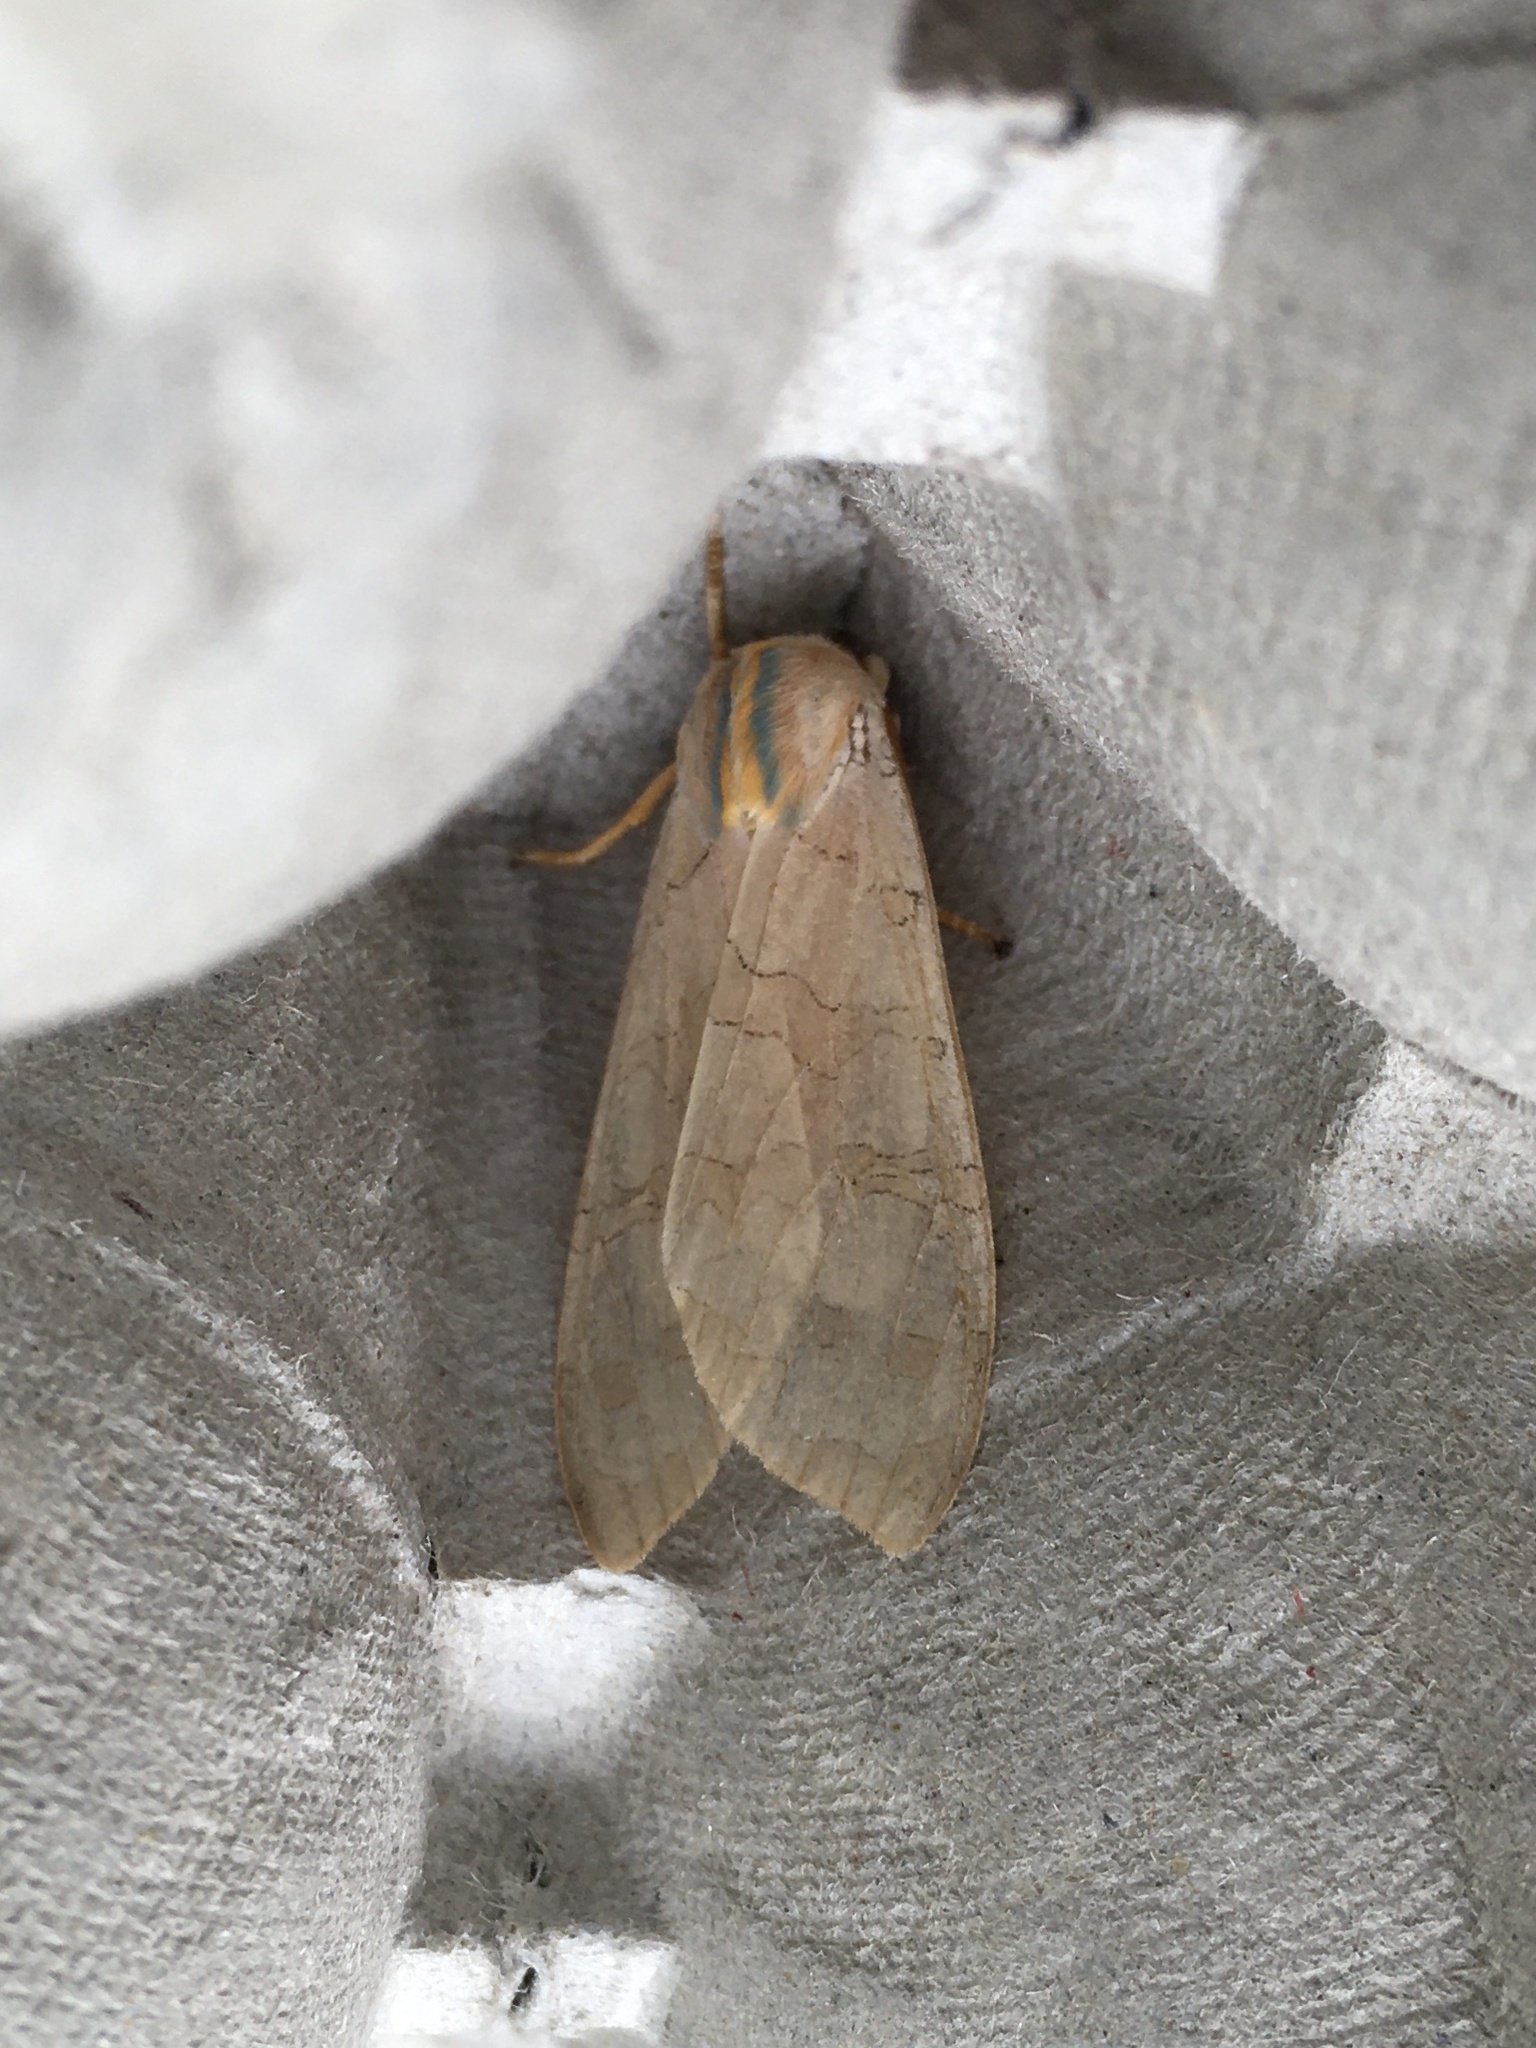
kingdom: Animalia
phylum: Arthropoda
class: Insecta
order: Lepidoptera
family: Erebidae
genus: Halysidota
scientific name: Halysidota tessellaris
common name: Banded tussock moth
